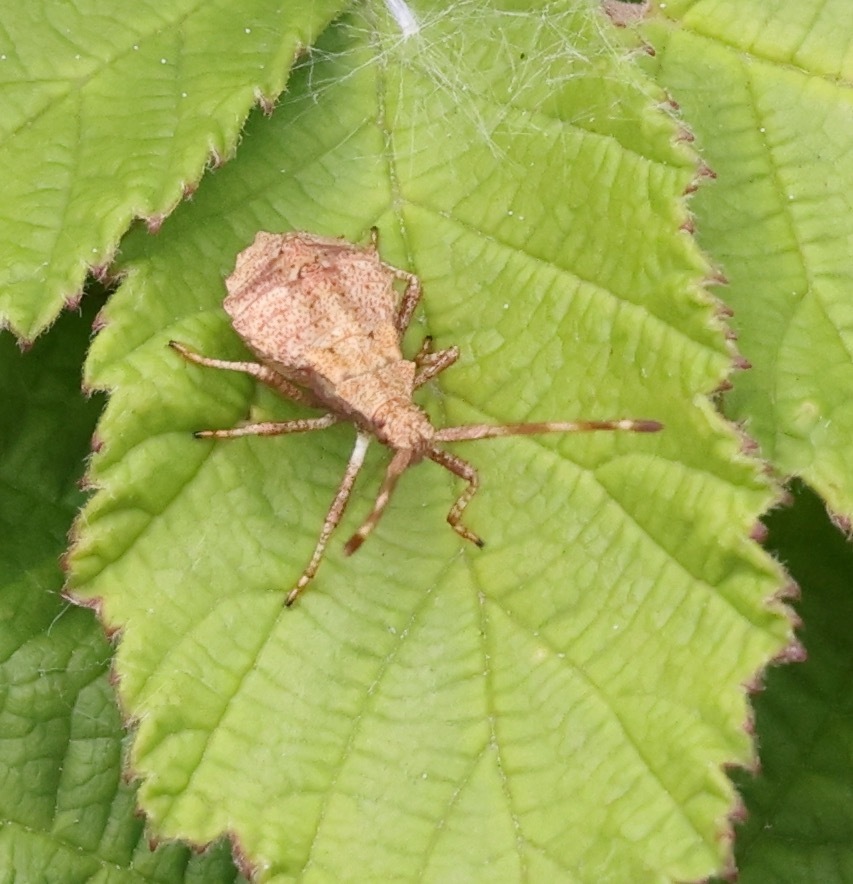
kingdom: Animalia
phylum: Arthropoda
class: Insecta
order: Hemiptera
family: Coreidae
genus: Coreus
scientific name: Coreus marginatus
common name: Dock bug
